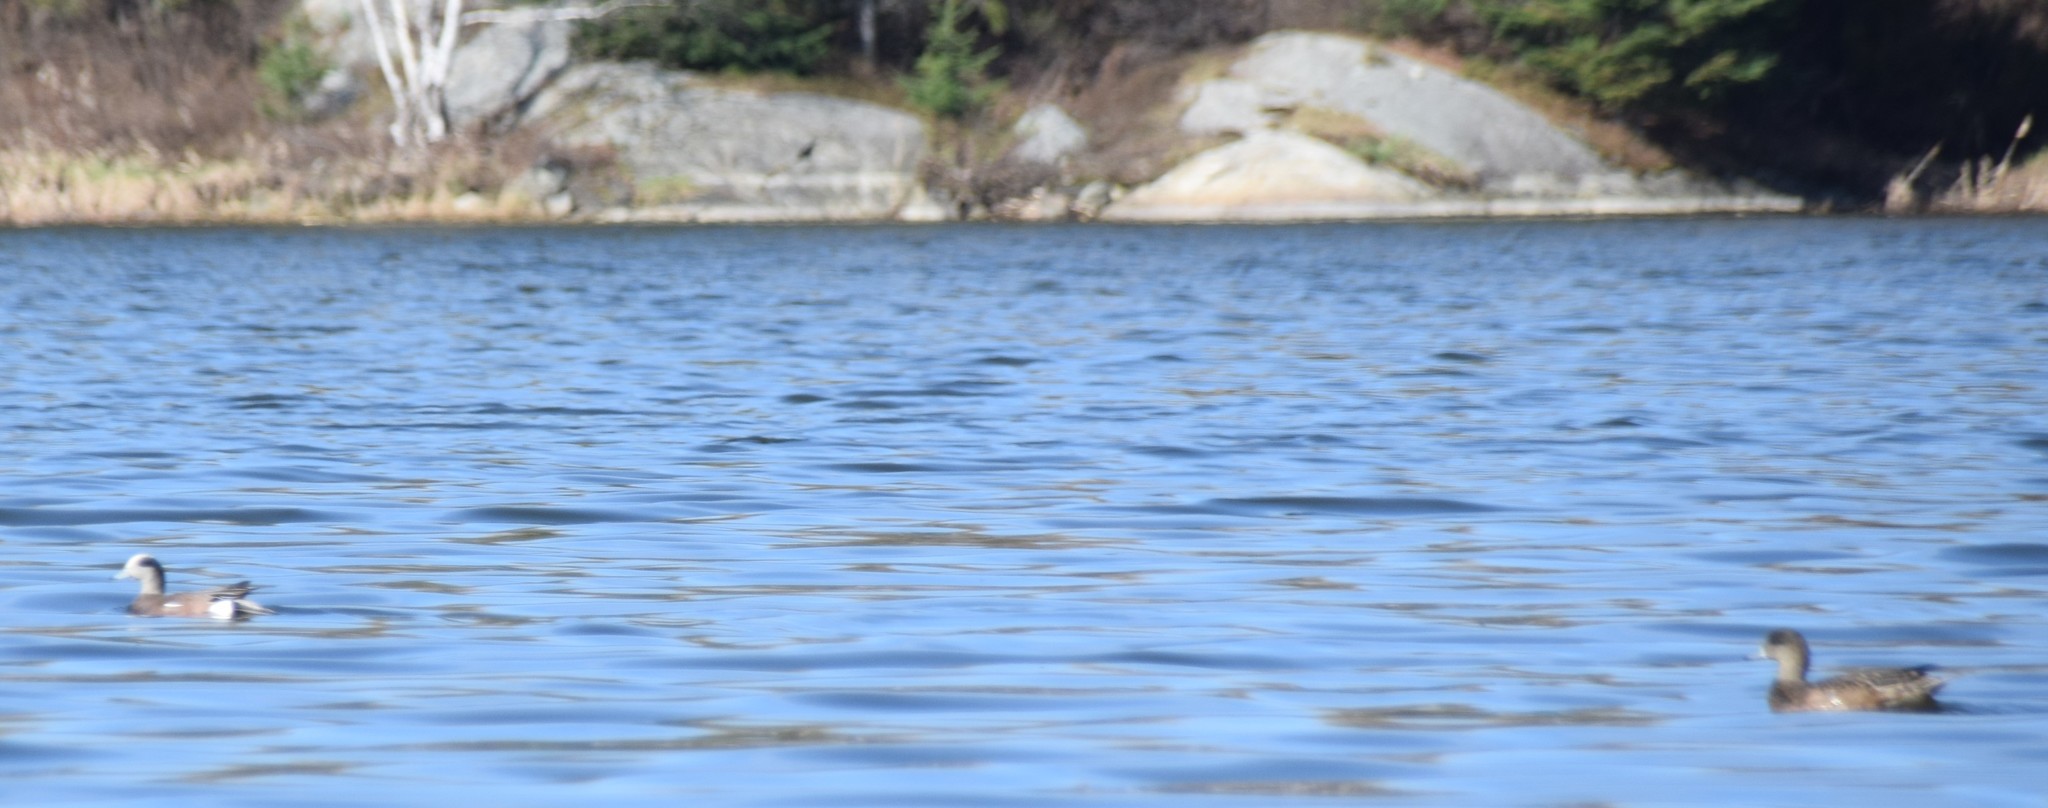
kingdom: Animalia
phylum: Chordata
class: Aves
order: Anseriformes
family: Anatidae
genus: Mareca
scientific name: Mareca americana
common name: American wigeon
